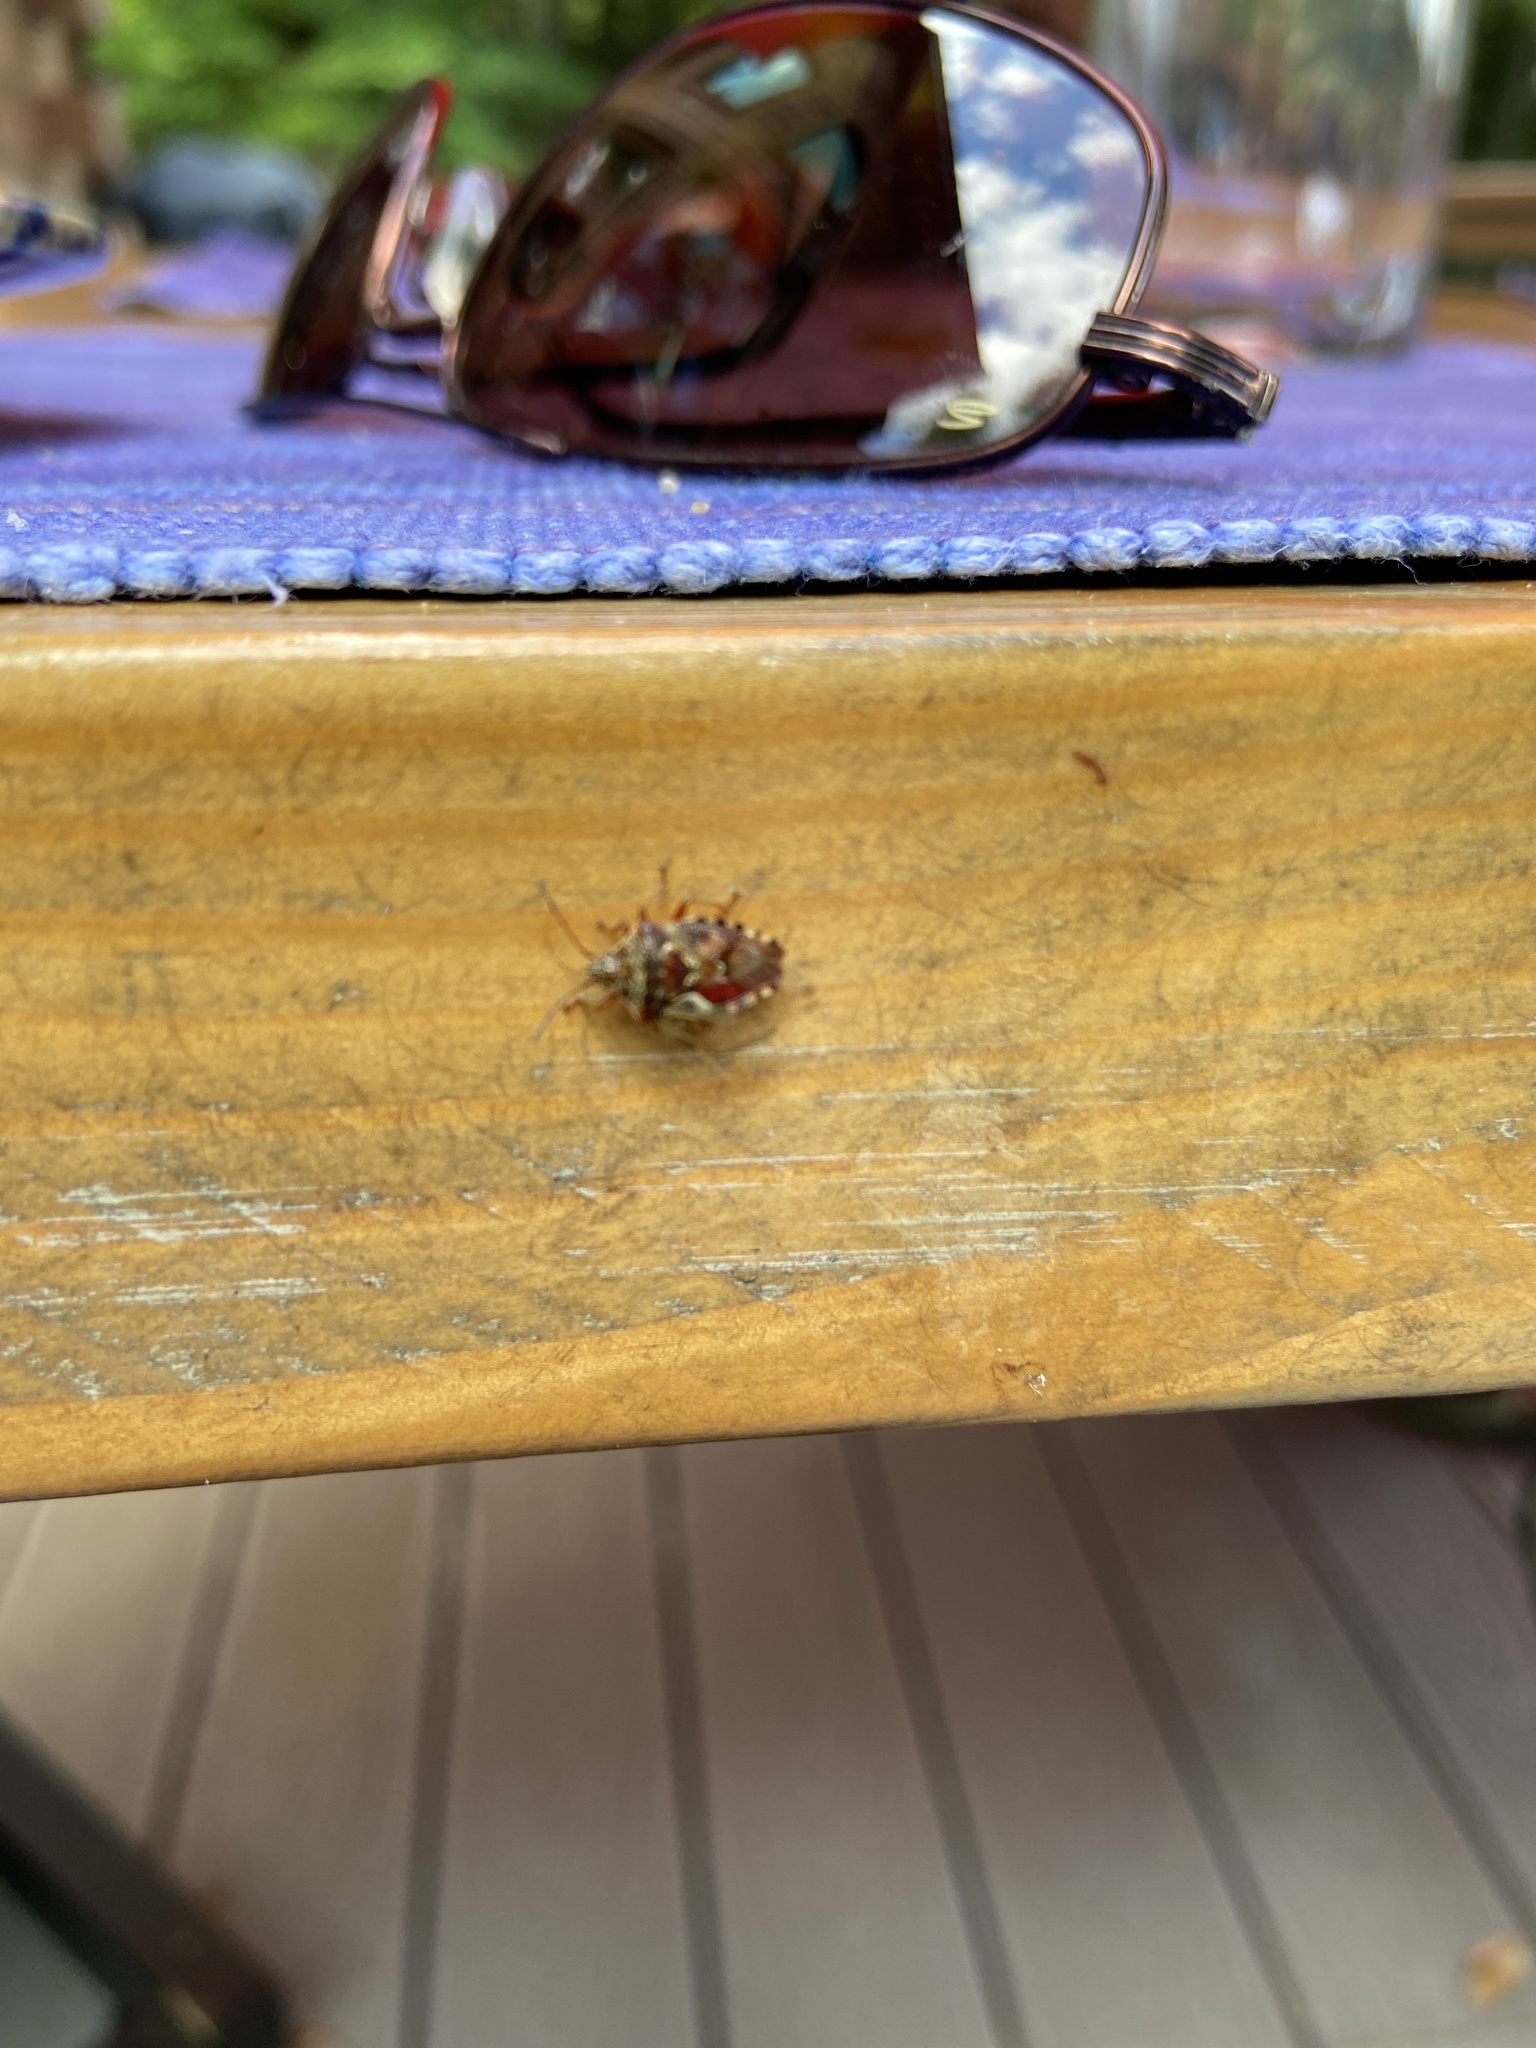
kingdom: Animalia
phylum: Arthropoda
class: Insecta
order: Hemiptera
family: Acanthosomatidae
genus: Elasmucha
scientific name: Elasmucha lateralis
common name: Shield bug
